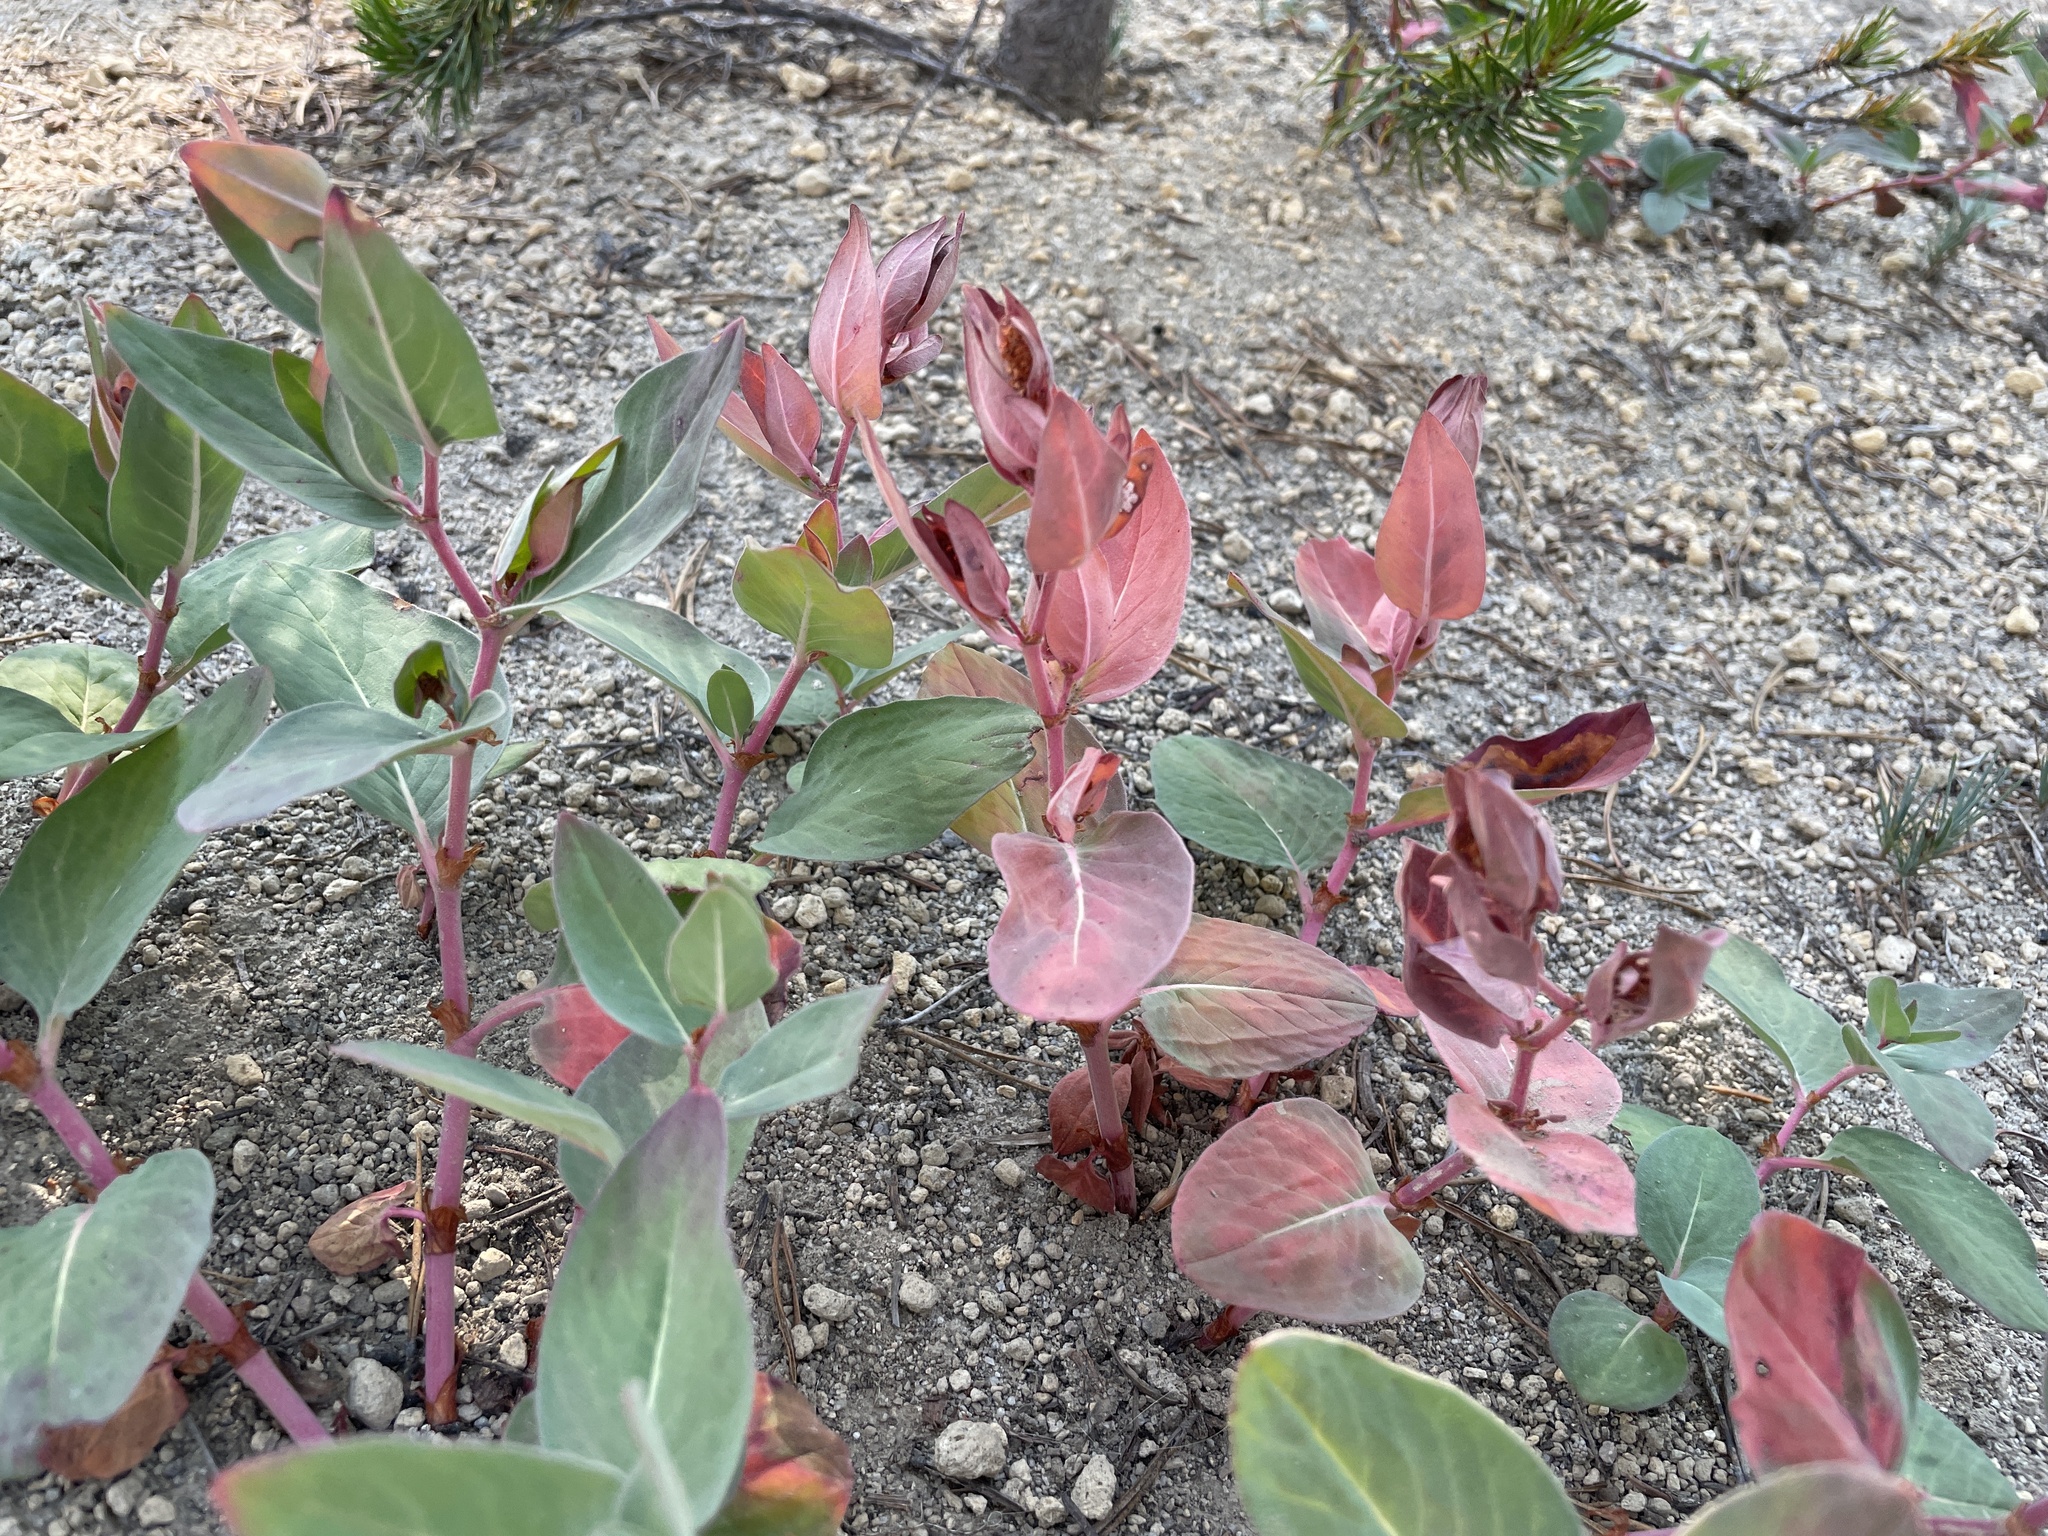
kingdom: Plantae
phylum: Tracheophyta
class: Magnoliopsida
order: Caryophyllales
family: Polygonaceae
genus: Koenigia
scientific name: Koenigia davisiae
